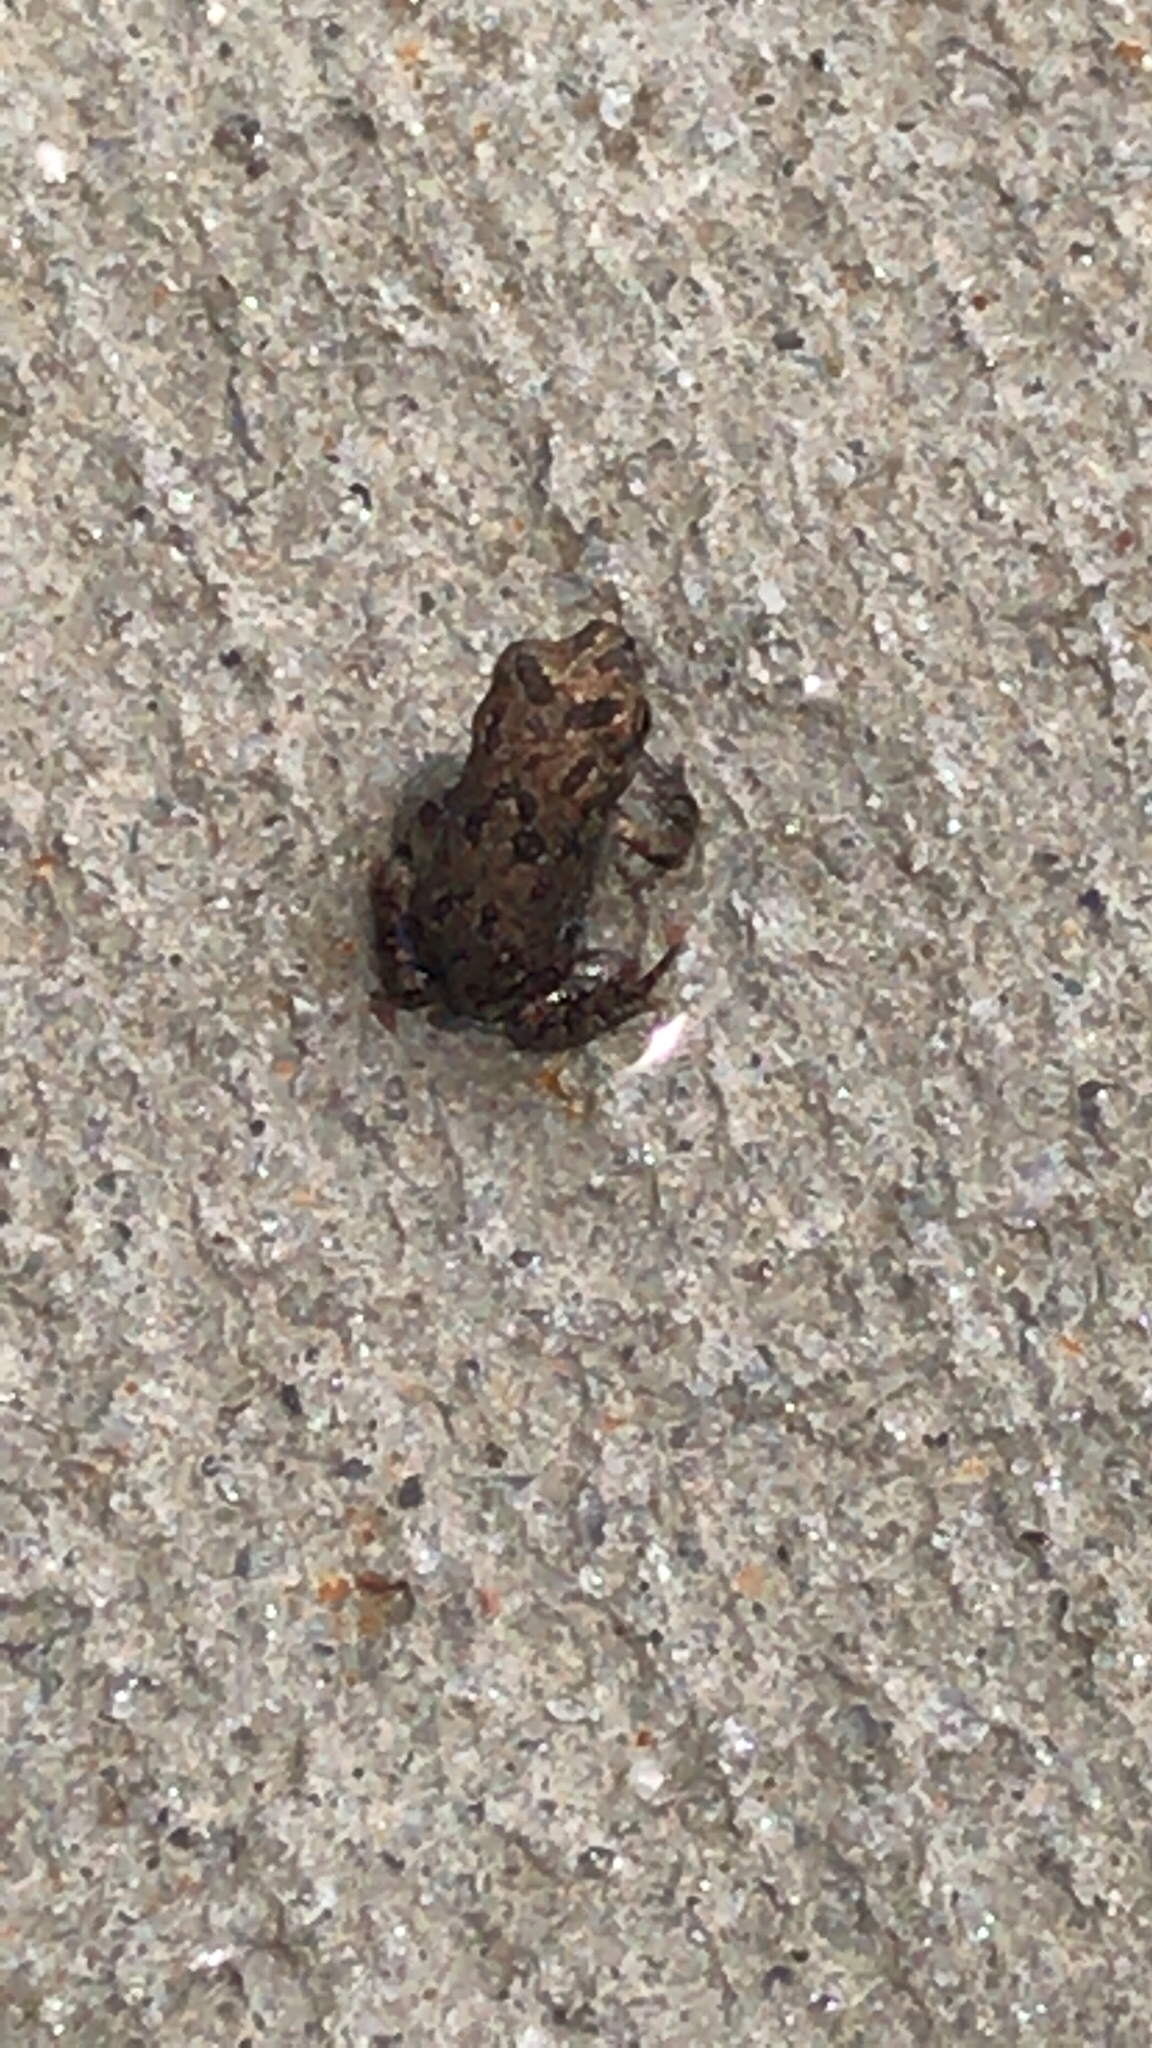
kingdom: Animalia
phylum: Chordata
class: Amphibia
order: Anura
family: Bufonidae
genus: Anaxyrus
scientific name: Anaxyrus terrestris
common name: Southern toad
